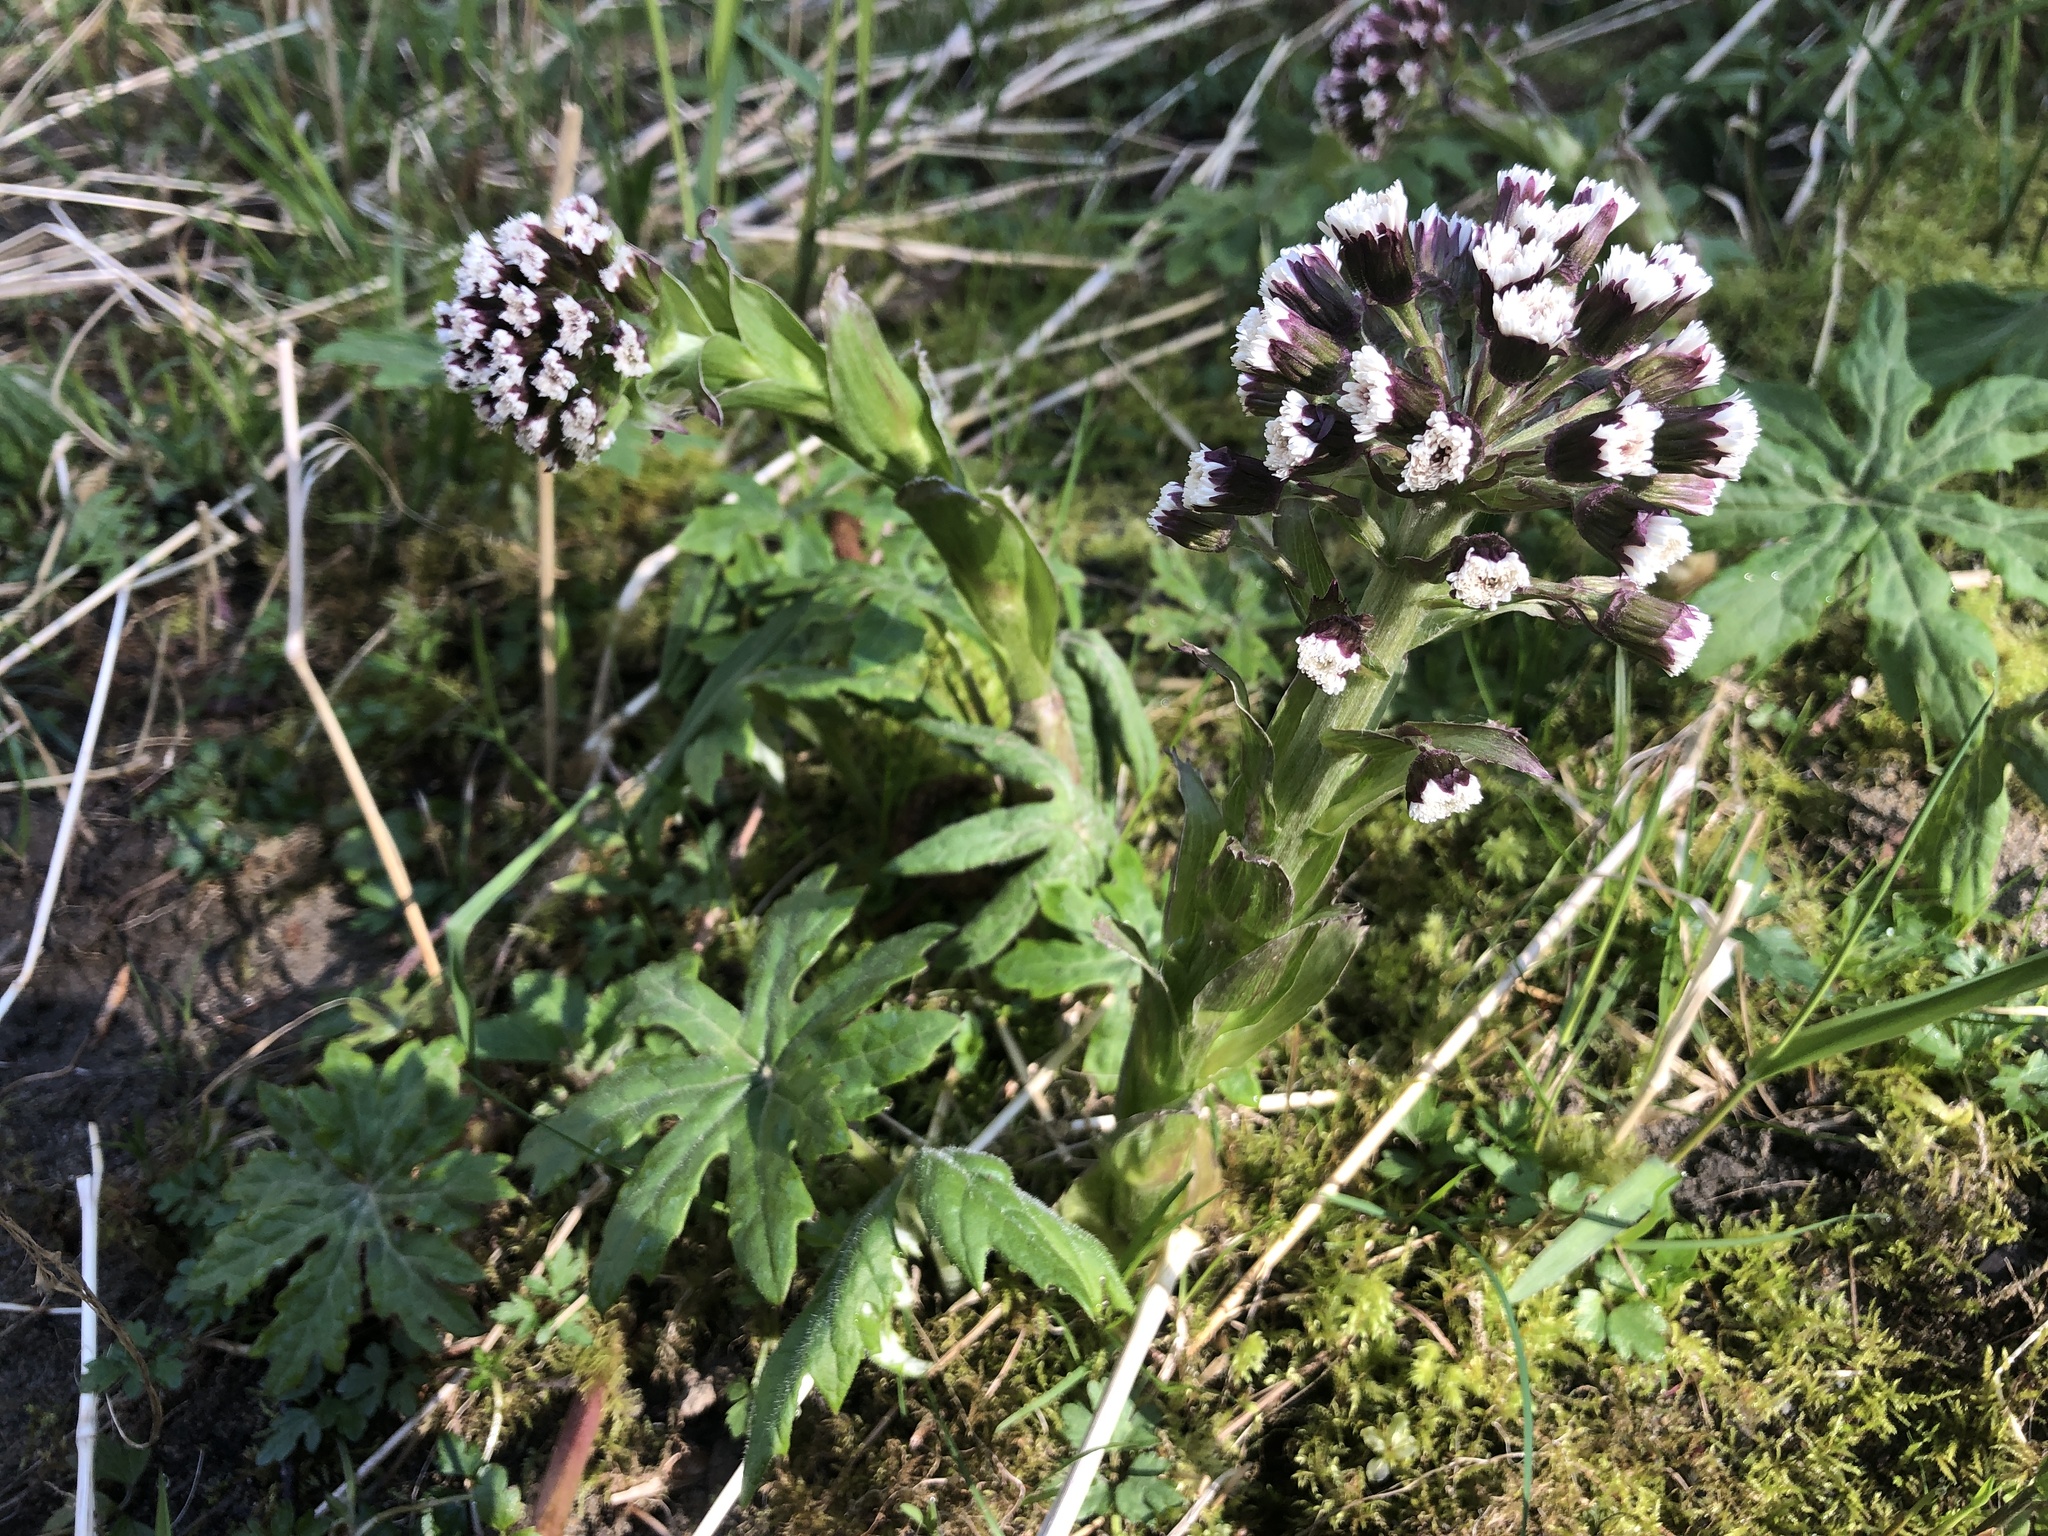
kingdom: Plantae
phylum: Tracheophyta
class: Magnoliopsida
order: Asterales
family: Asteraceae
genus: Petasites
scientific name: Petasites frigidus
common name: Arctic butterbur
